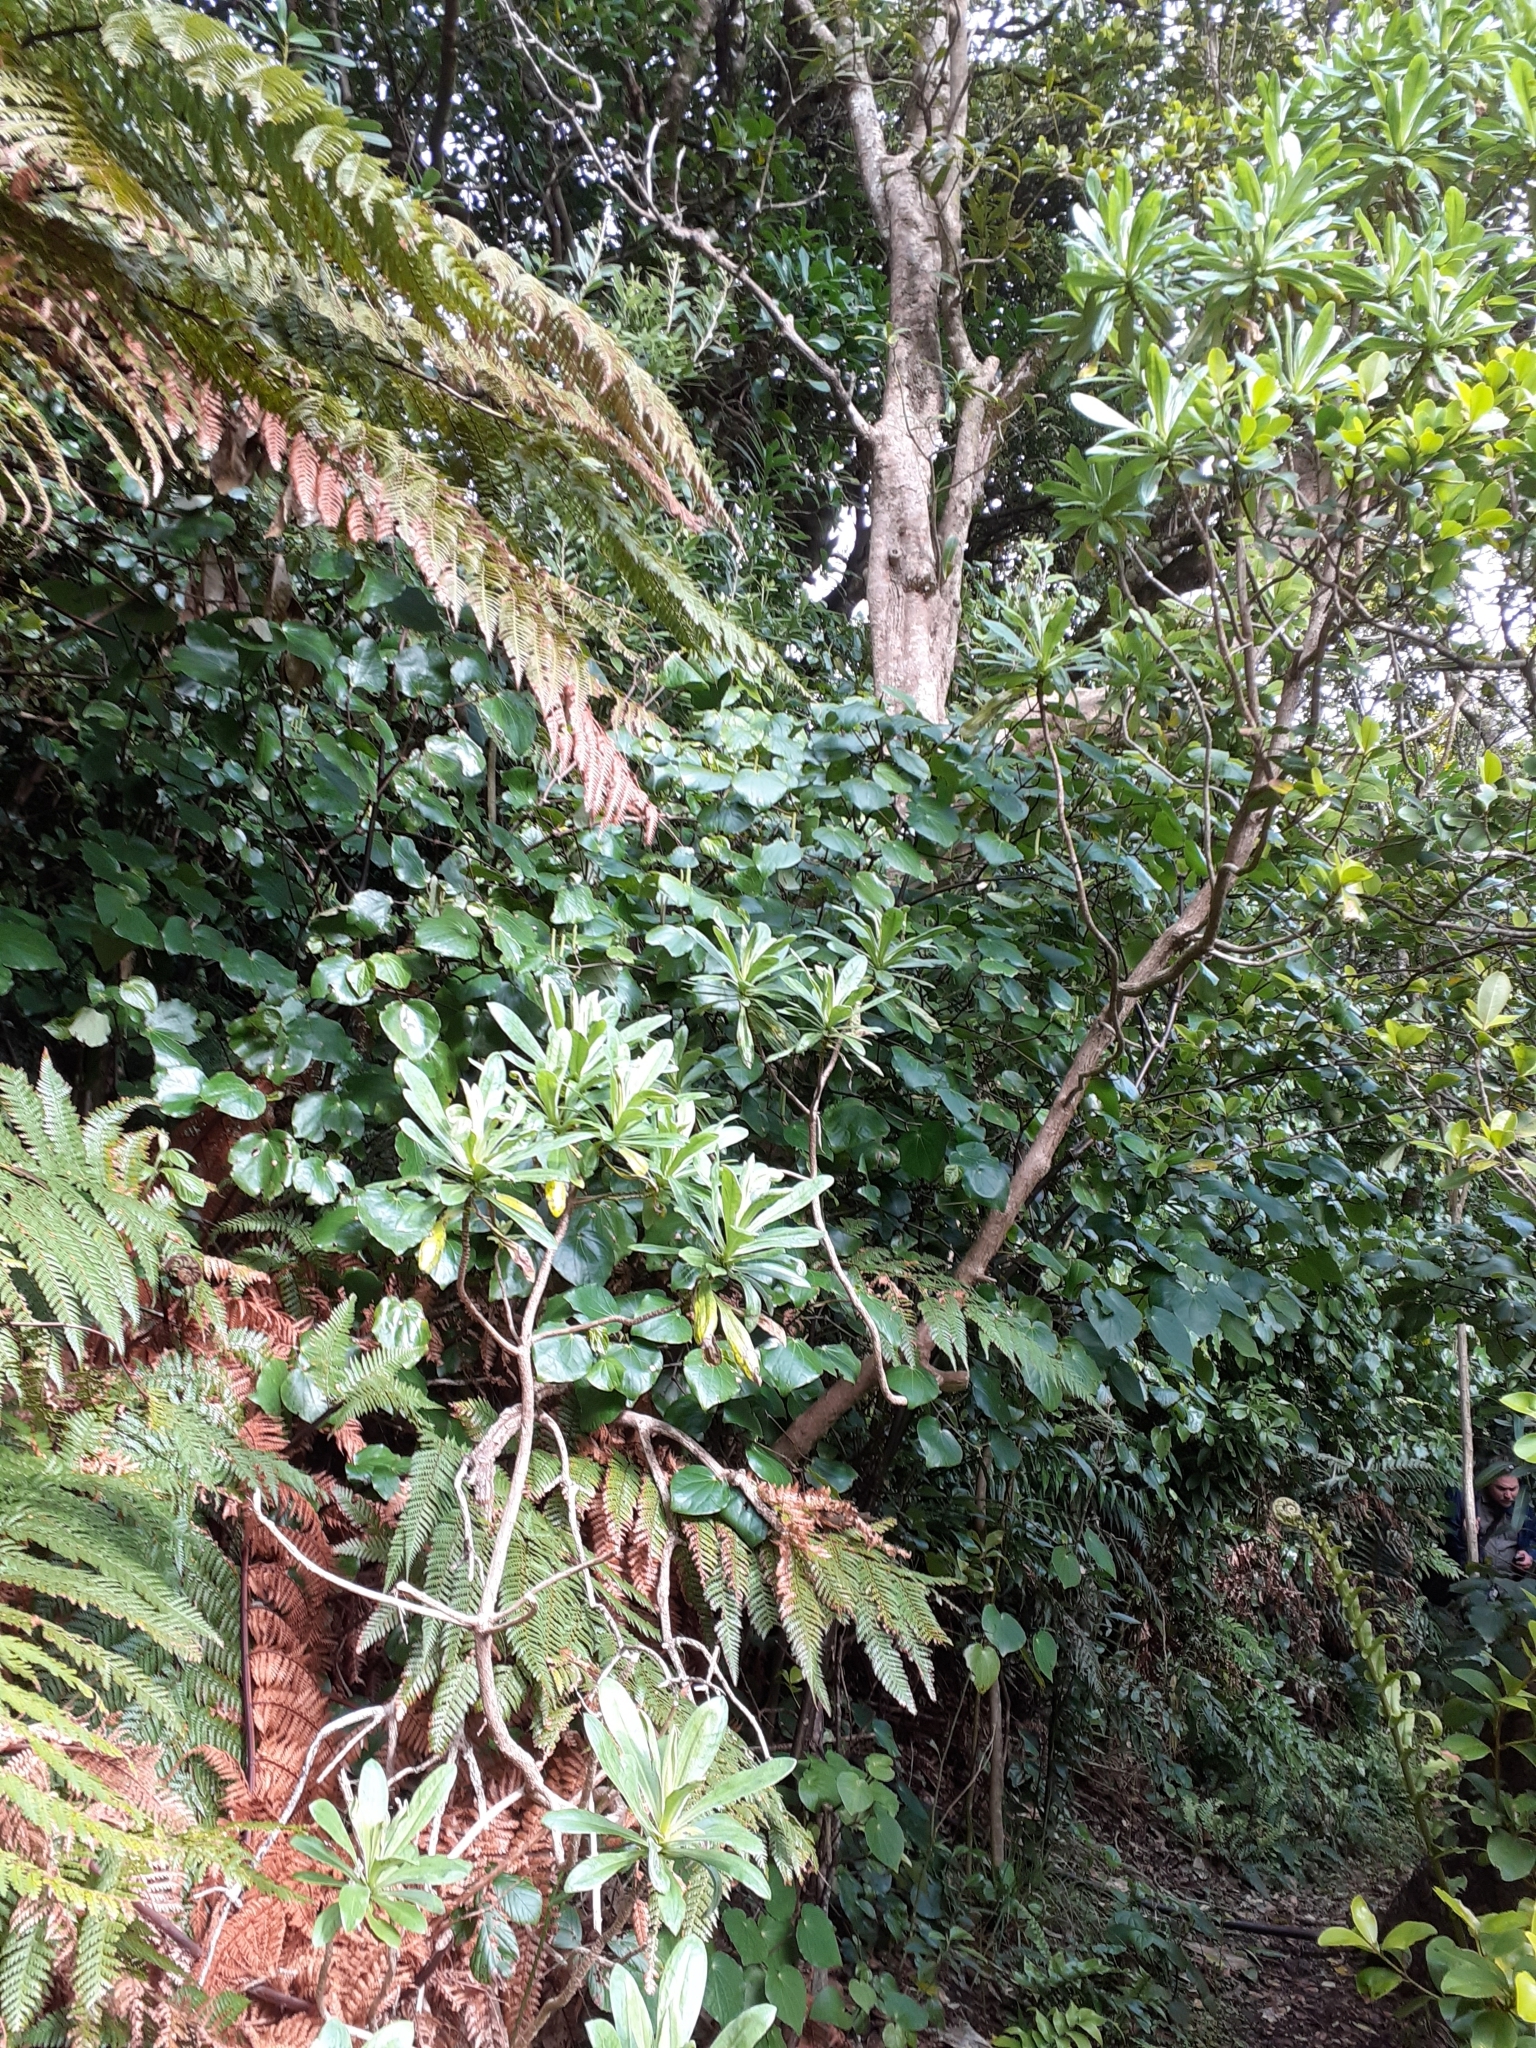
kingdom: Plantae
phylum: Tracheophyta
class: Magnoliopsida
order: Asterales
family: Asteraceae
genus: Brachyglottis
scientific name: Brachyglottis huntii
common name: Chatham island christmas tree
